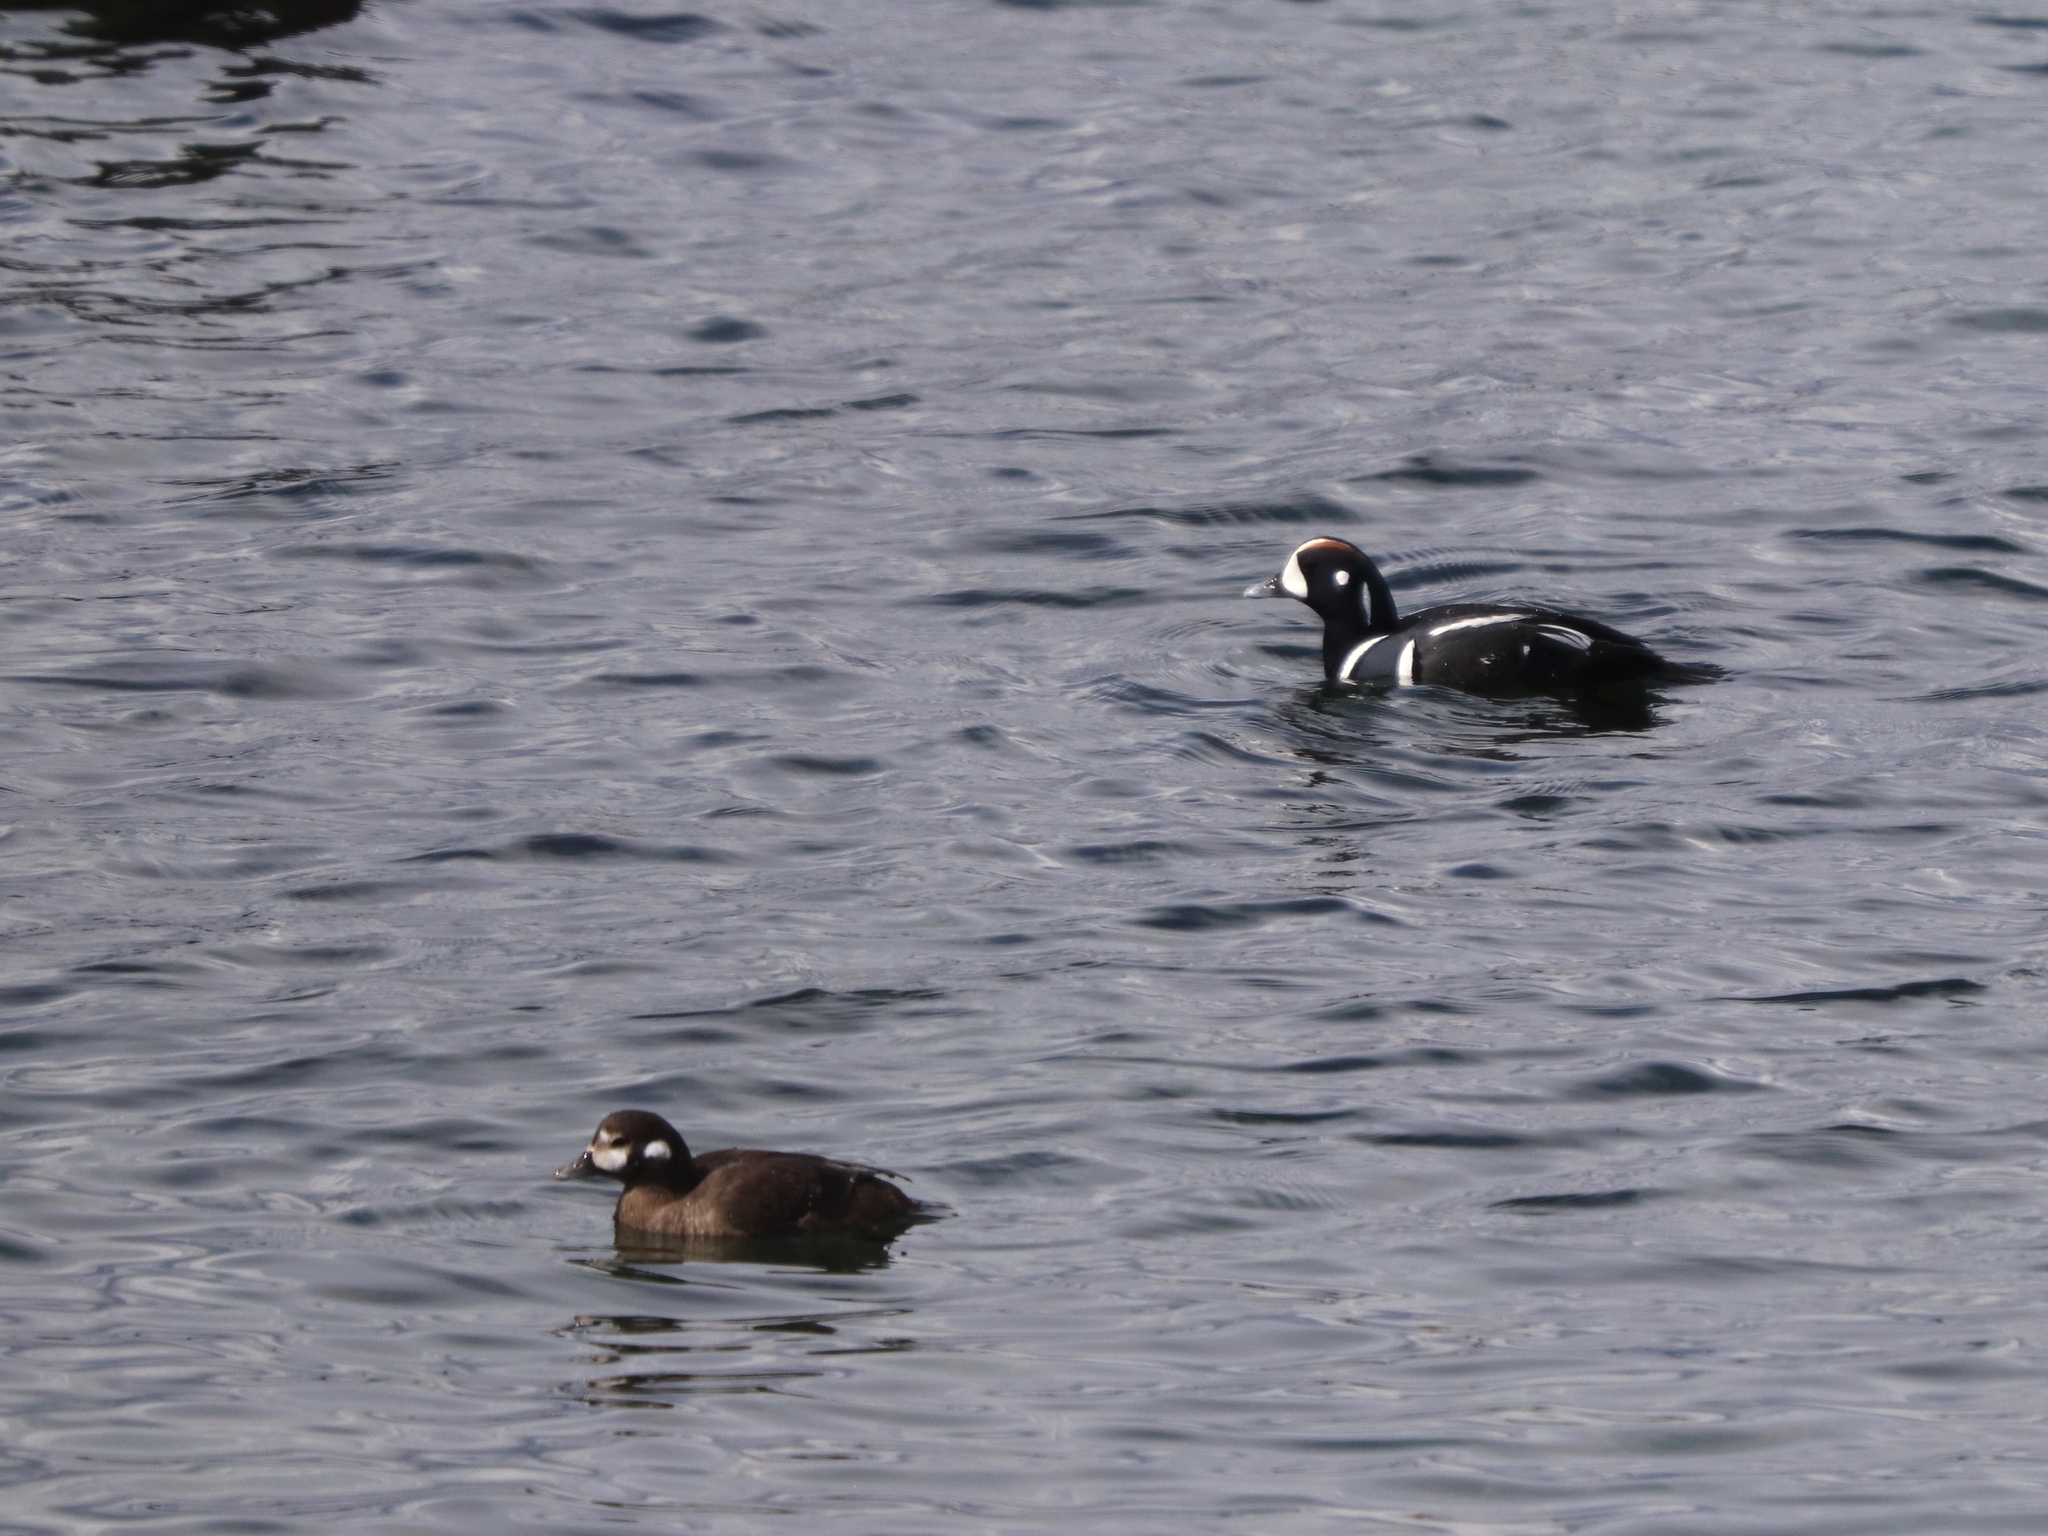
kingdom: Animalia
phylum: Chordata
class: Aves
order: Anseriformes
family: Anatidae
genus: Histrionicus
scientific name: Histrionicus histrionicus
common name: Harlequin duck
